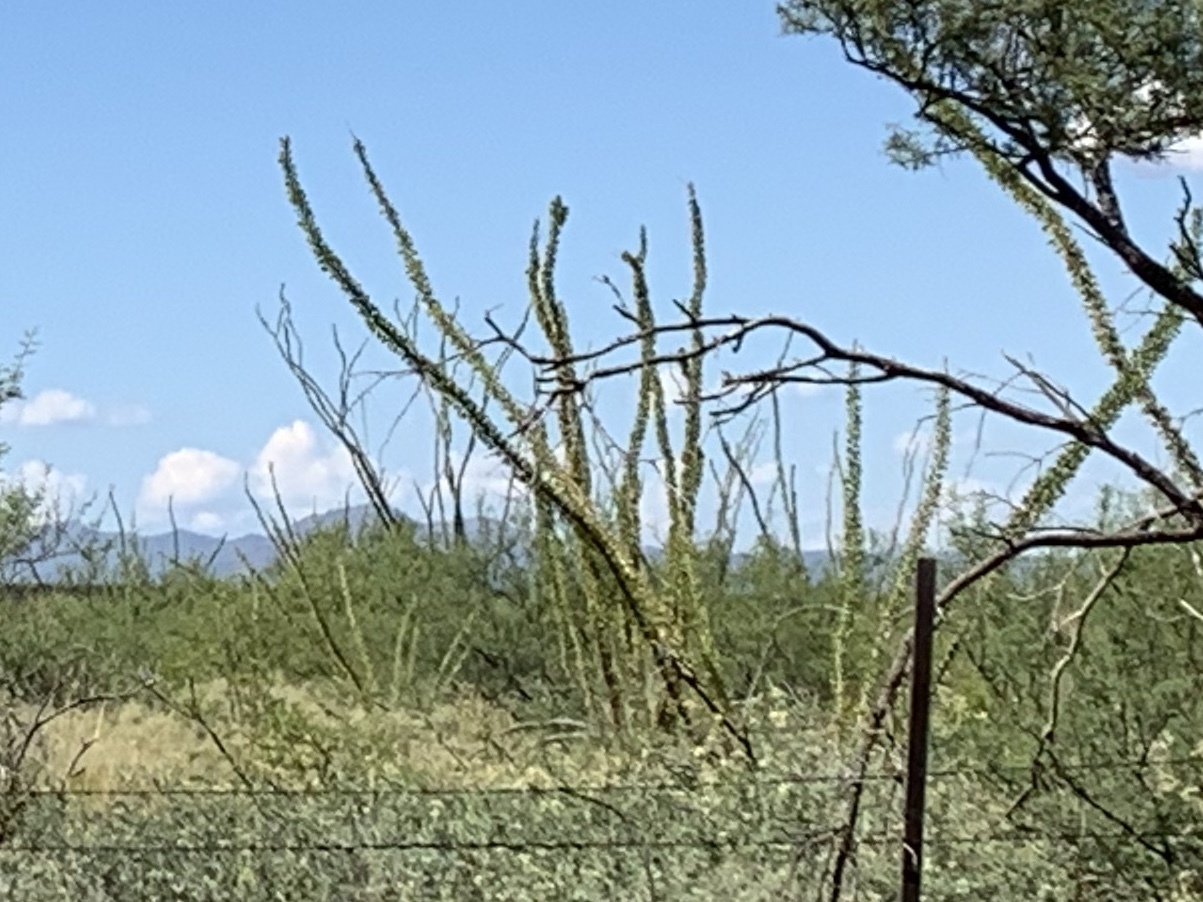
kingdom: Plantae
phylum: Tracheophyta
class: Magnoliopsida
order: Ericales
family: Fouquieriaceae
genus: Fouquieria
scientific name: Fouquieria splendens
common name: Vine-cactus
